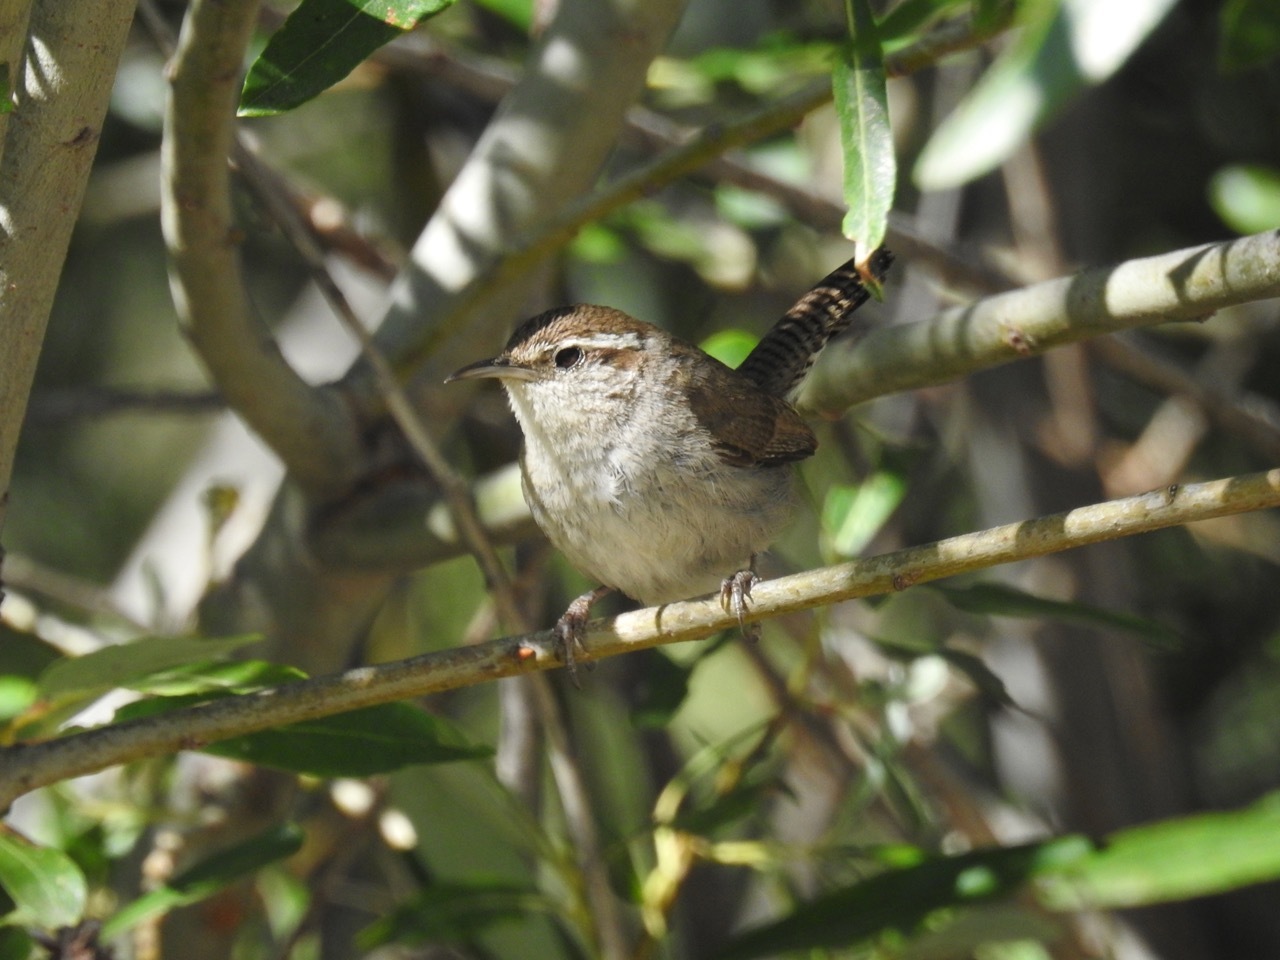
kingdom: Animalia
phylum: Chordata
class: Aves
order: Passeriformes
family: Troglodytidae
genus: Thryomanes
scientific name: Thryomanes bewickii
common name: Bewick's wren
